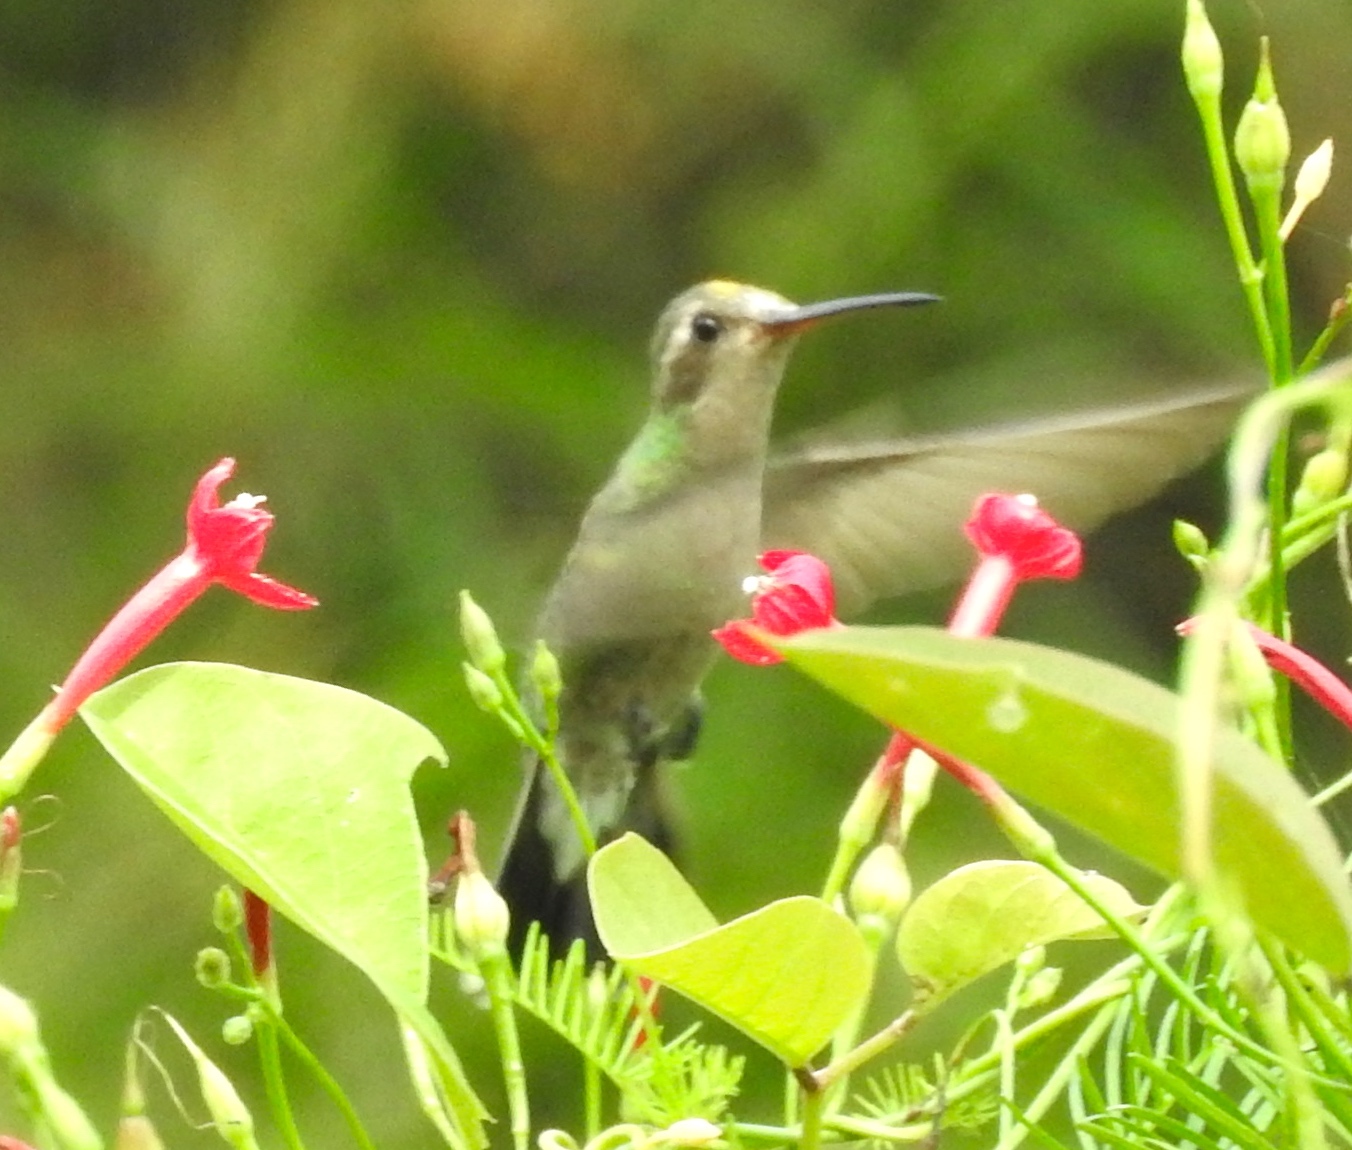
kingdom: Animalia
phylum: Chordata
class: Aves
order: Apodiformes
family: Trochilidae
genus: Cynanthus
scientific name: Cynanthus latirostris
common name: Broad-billed hummingbird
